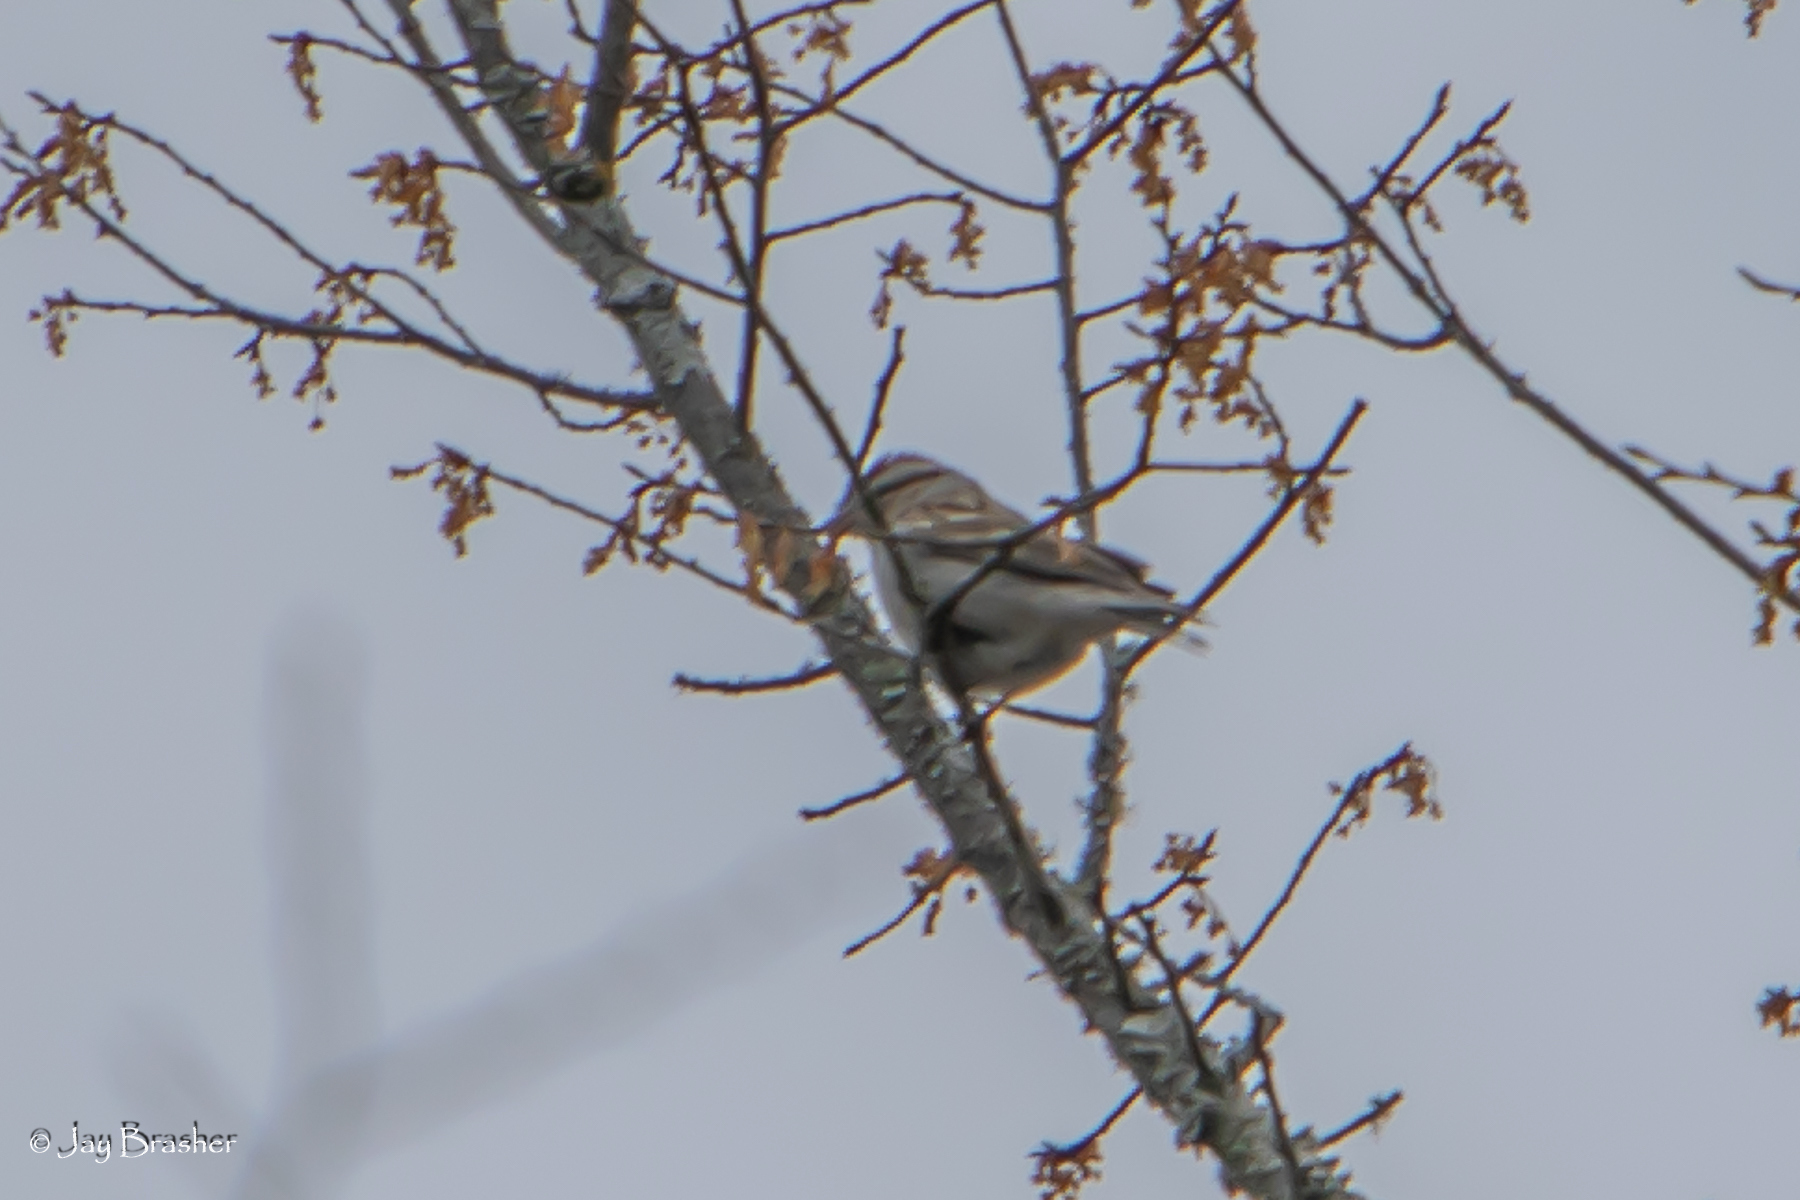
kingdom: Animalia
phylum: Chordata
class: Aves
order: Passeriformes
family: Passerellidae
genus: Spizella
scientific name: Spizella passerina
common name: Chipping sparrow
